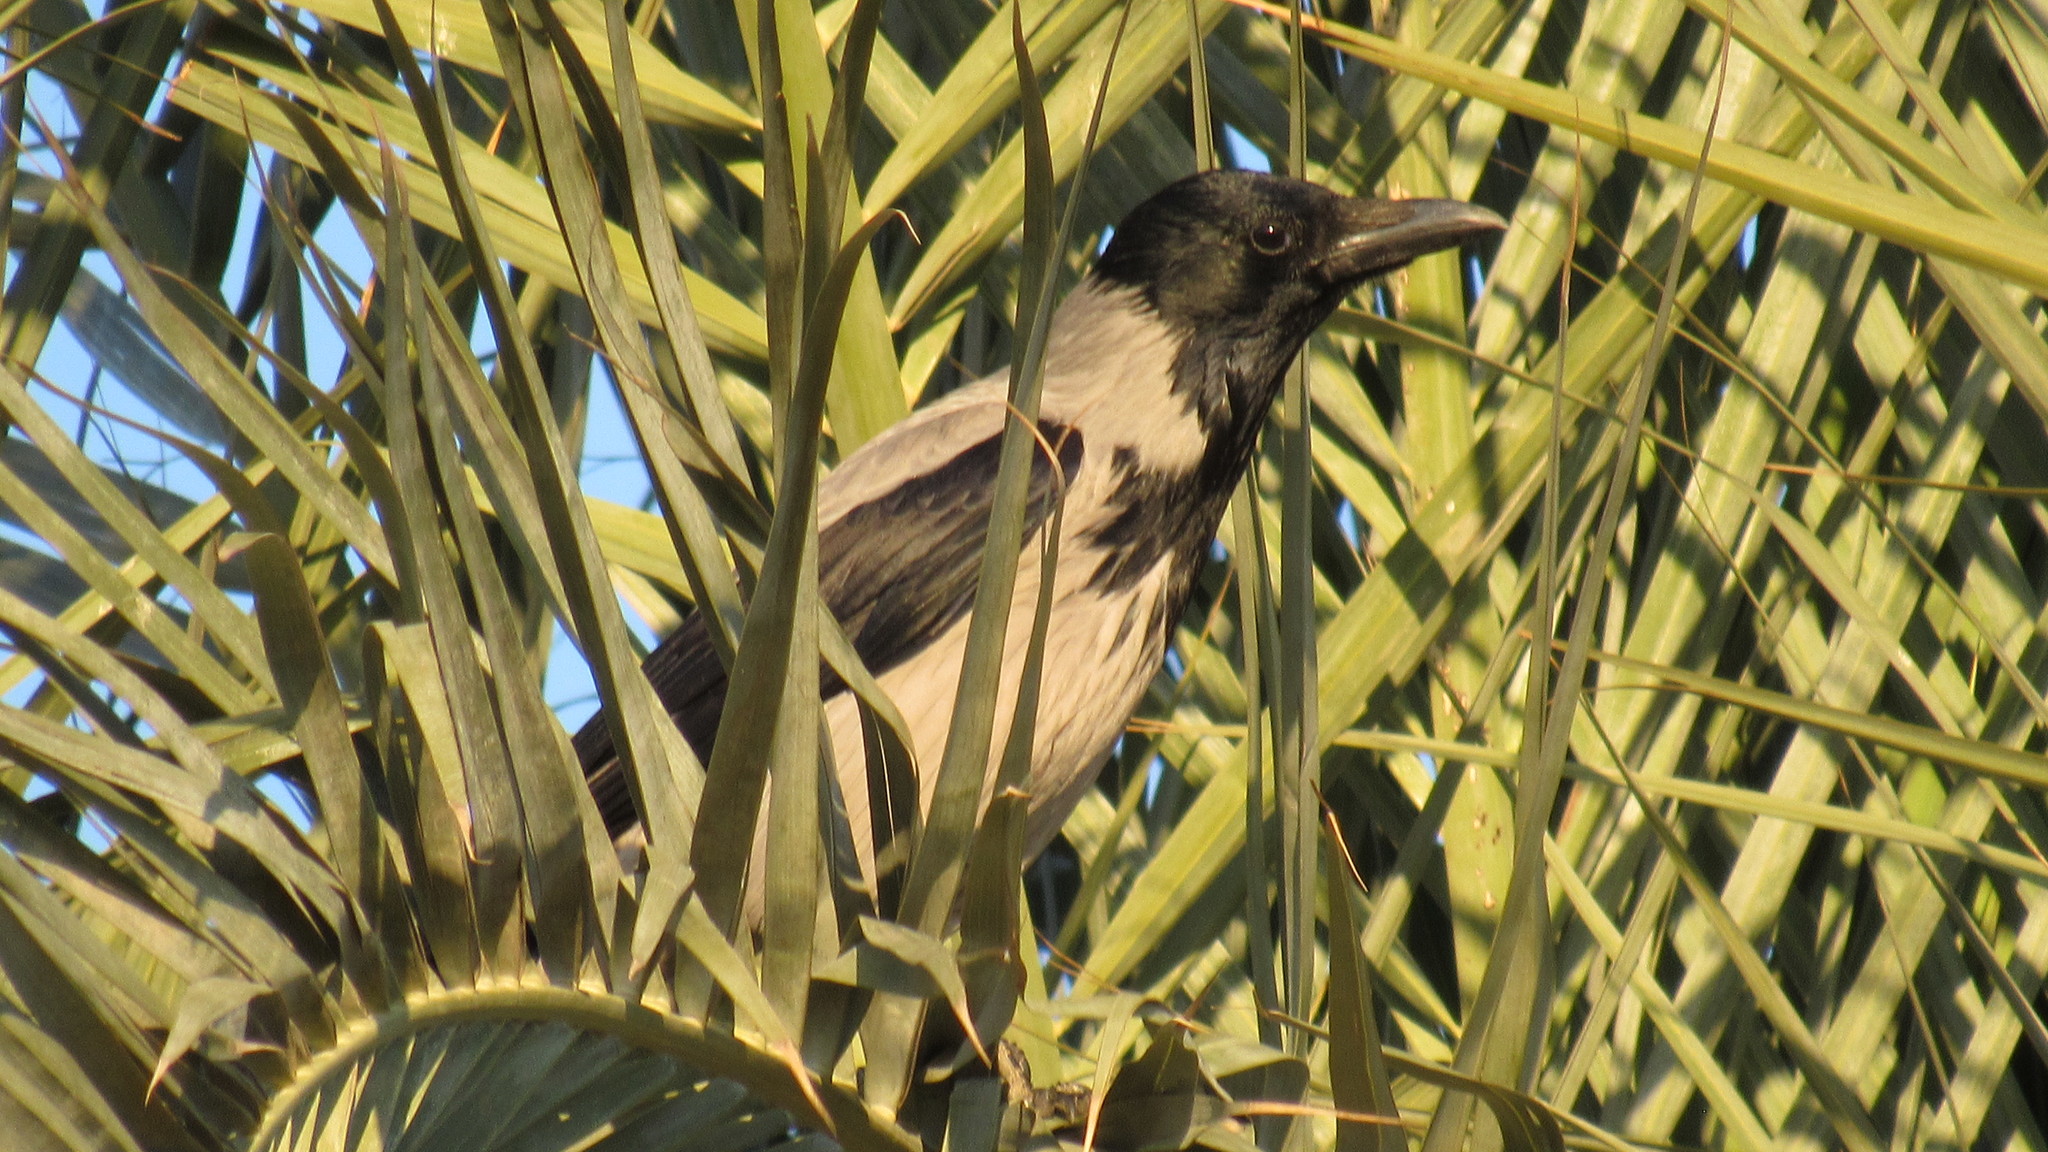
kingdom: Animalia
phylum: Chordata
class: Aves
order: Passeriformes
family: Corvidae
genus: Corvus
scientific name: Corvus cornix
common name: Hooded crow
